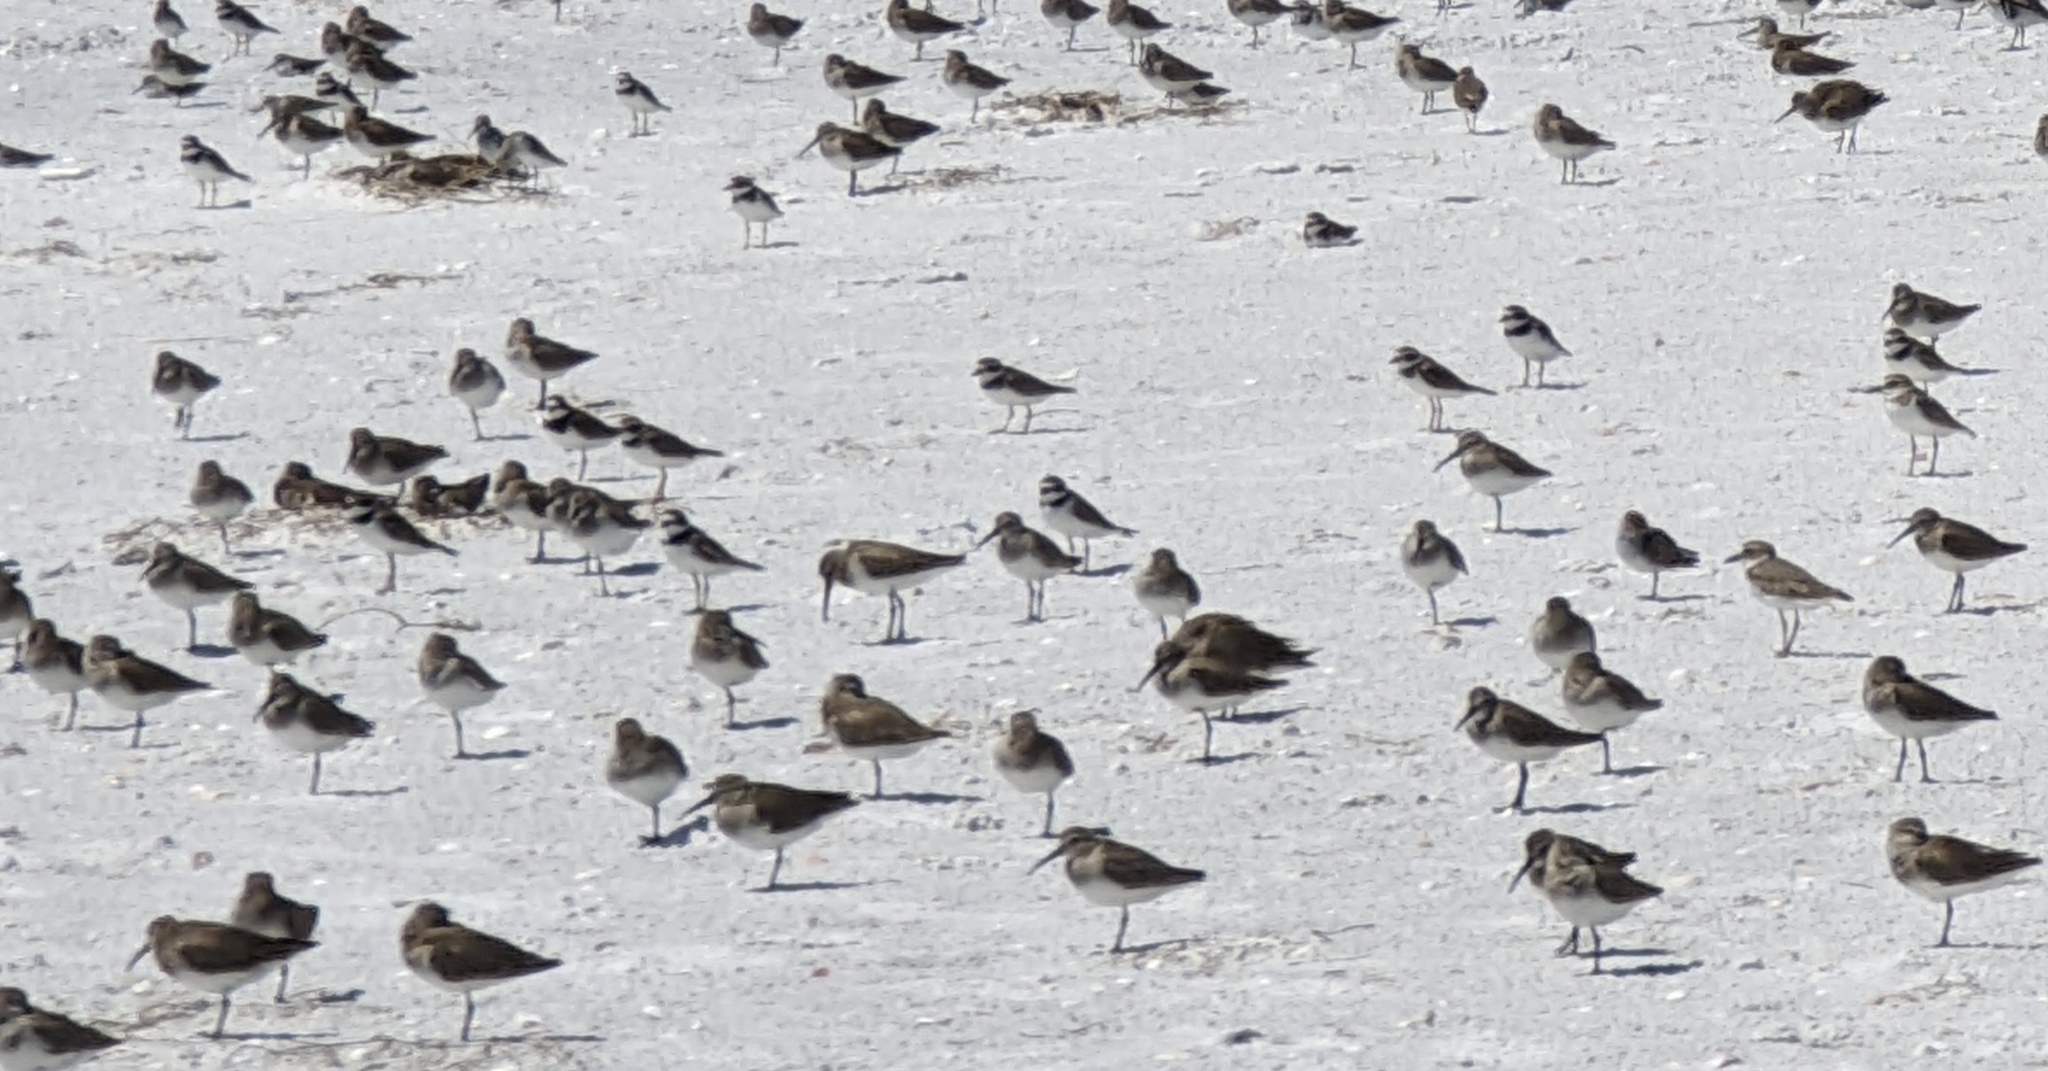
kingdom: Animalia
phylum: Chordata
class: Aves
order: Charadriiformes
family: Scolopacidae
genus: Calidris
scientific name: Calidris alpina
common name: Dunlin
